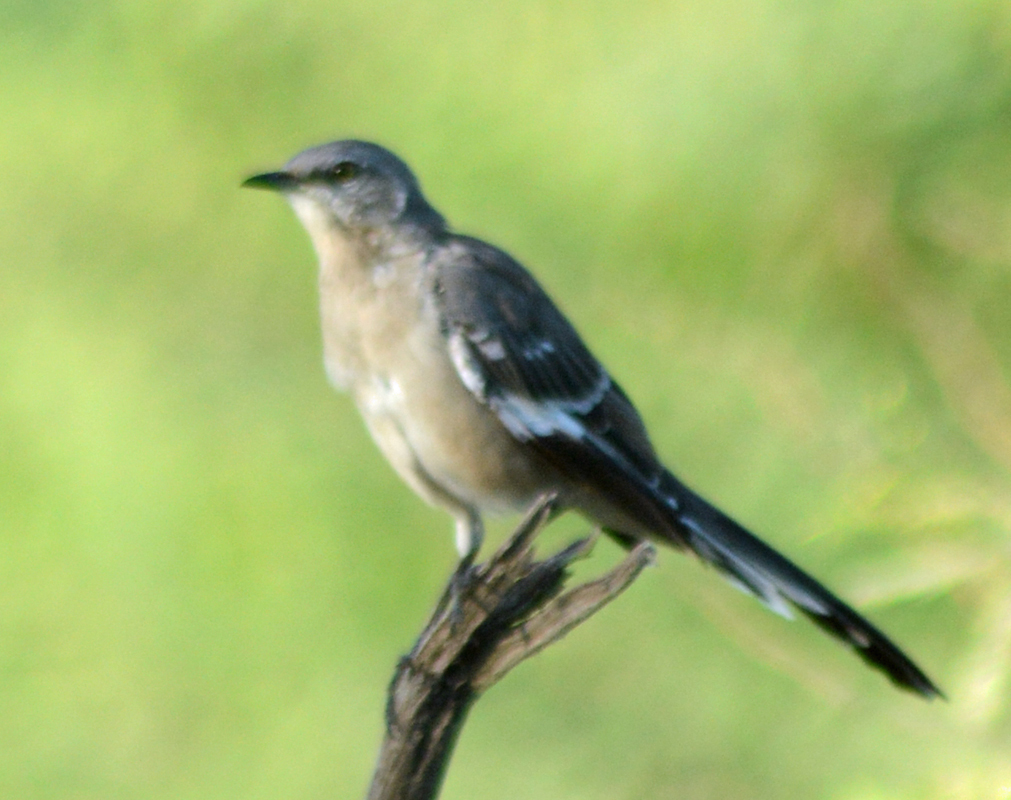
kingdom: Animalia
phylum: Chordata
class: Aves
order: Passeriformes
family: Mimidae
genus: Mimus
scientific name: Mimus polyglottos
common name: Northern mockingbird
